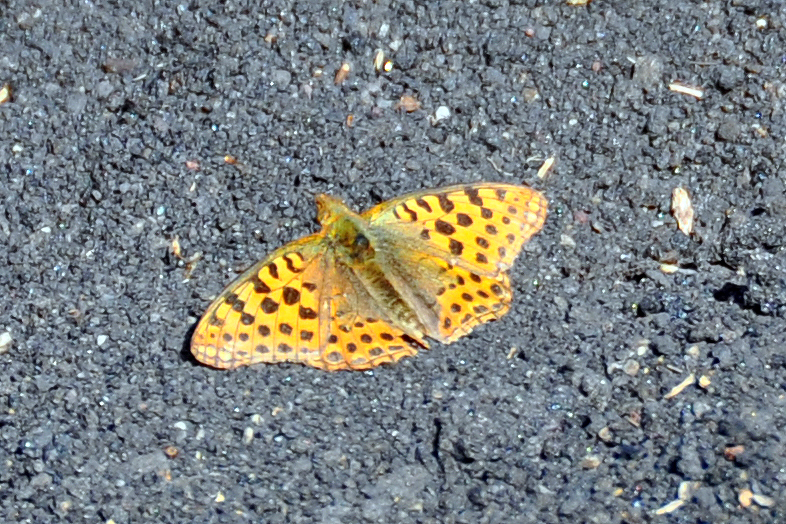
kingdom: Animalia
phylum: Arthropoda
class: Insecta
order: Lepidoptera
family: Nymphalidae
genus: Issoria
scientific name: Issoria lathonia
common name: Queen of spain fritillary
